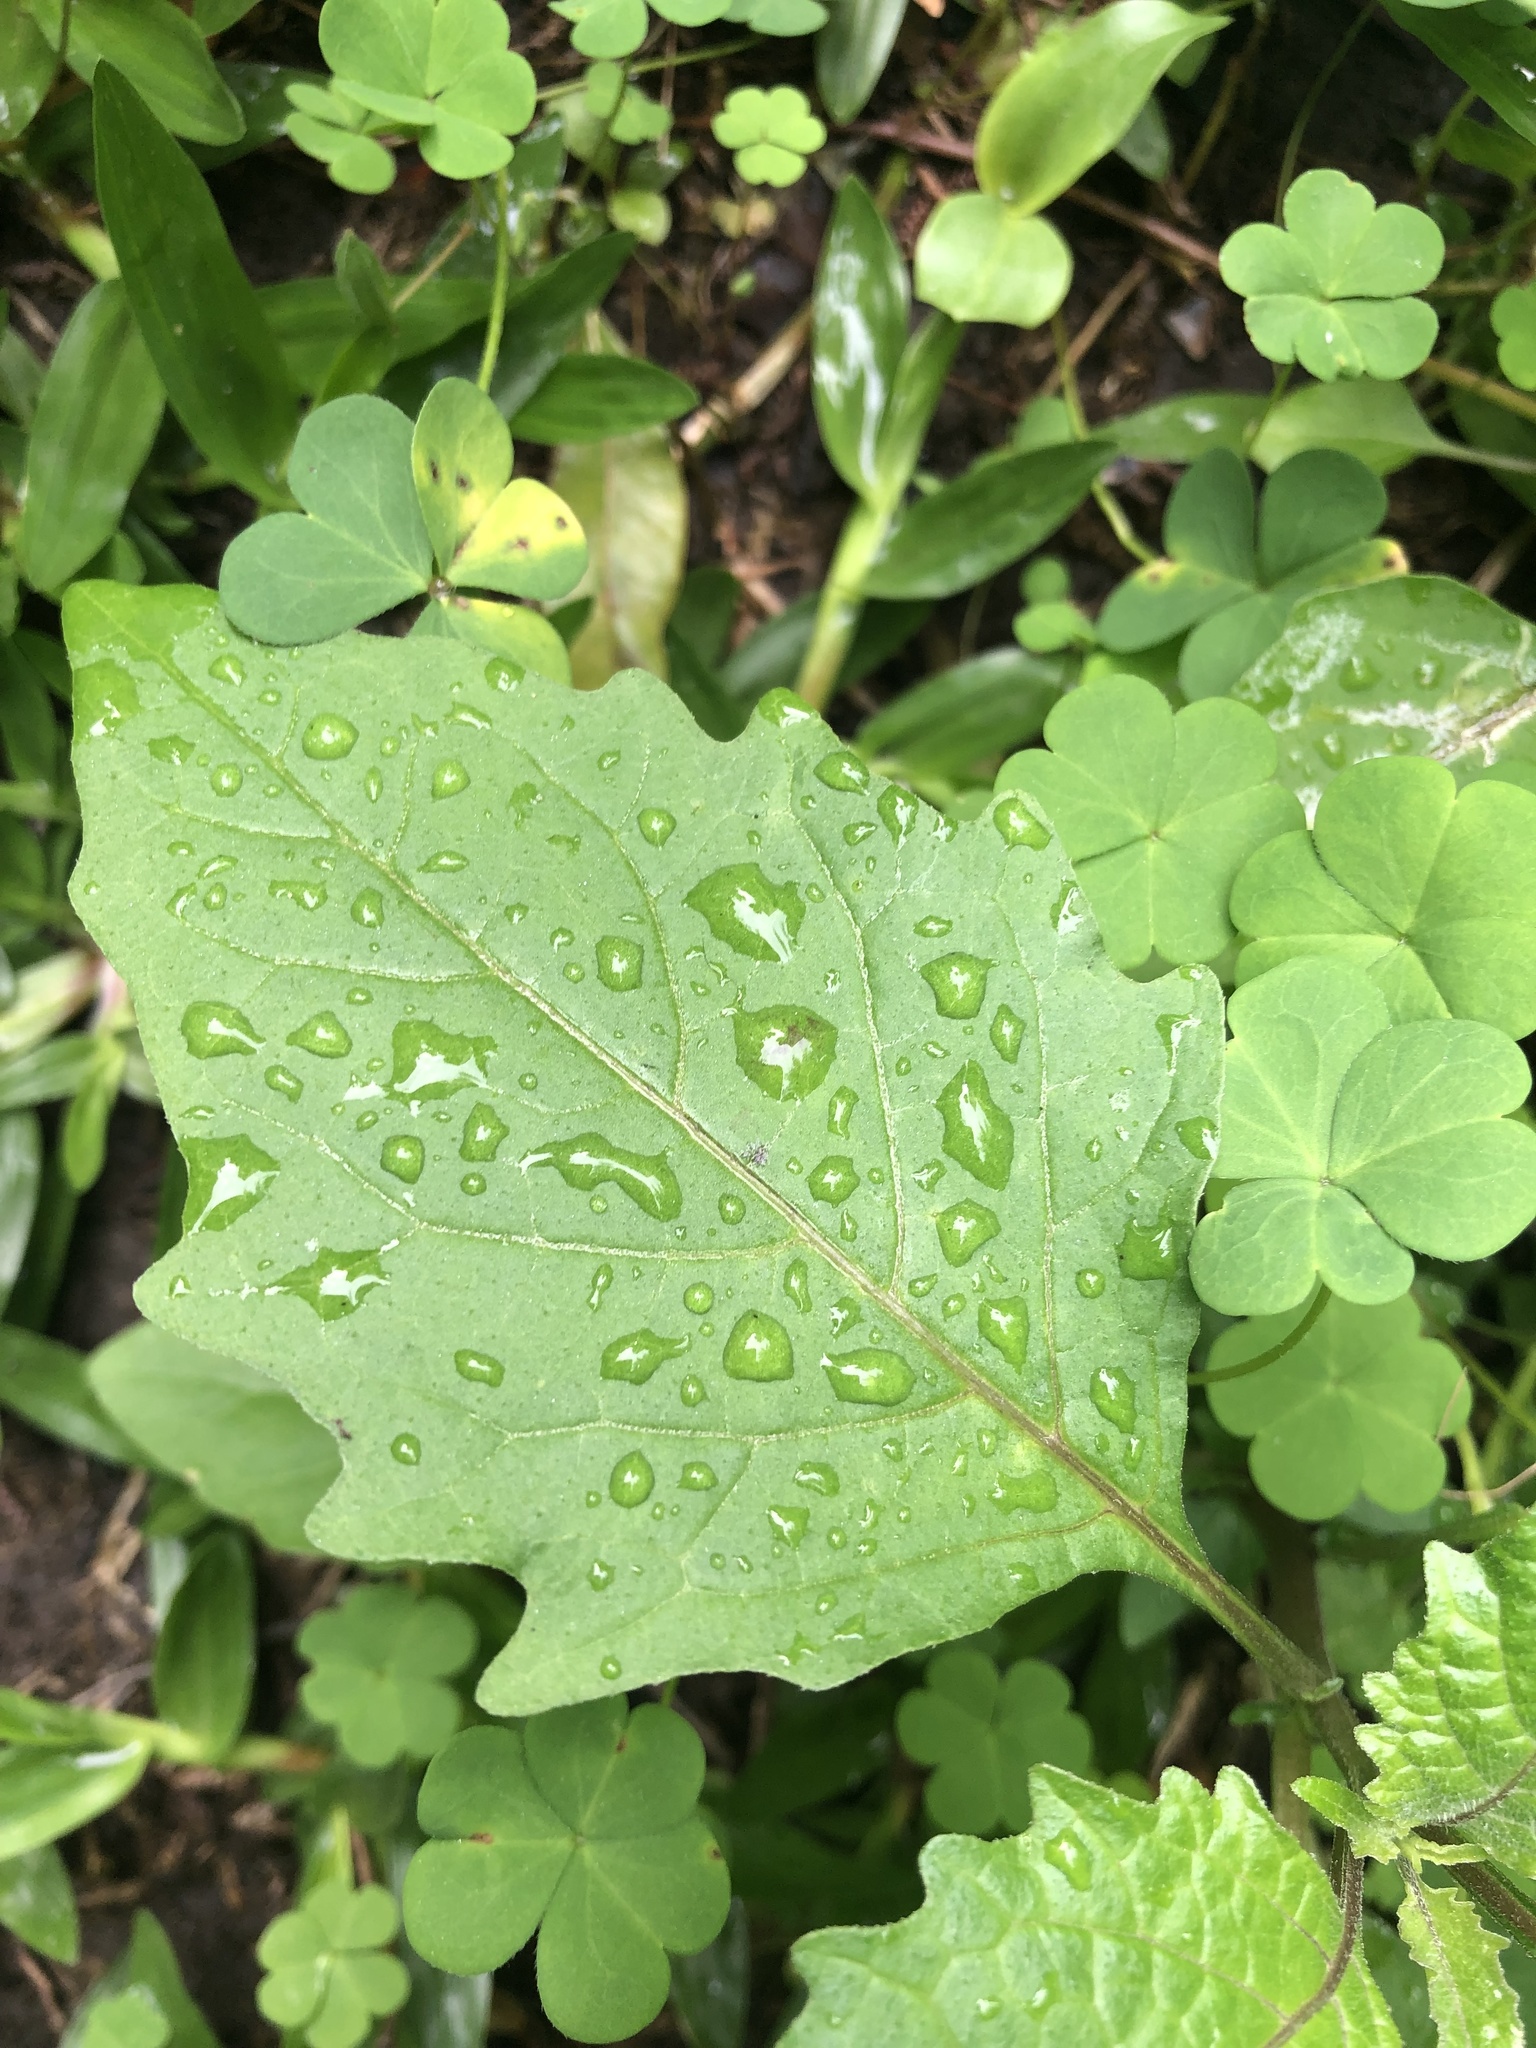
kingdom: Plantae
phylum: Tracheophyta
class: Magnoliopsida
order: Solanales
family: Solanaceae
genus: Solanum
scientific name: Solanum
